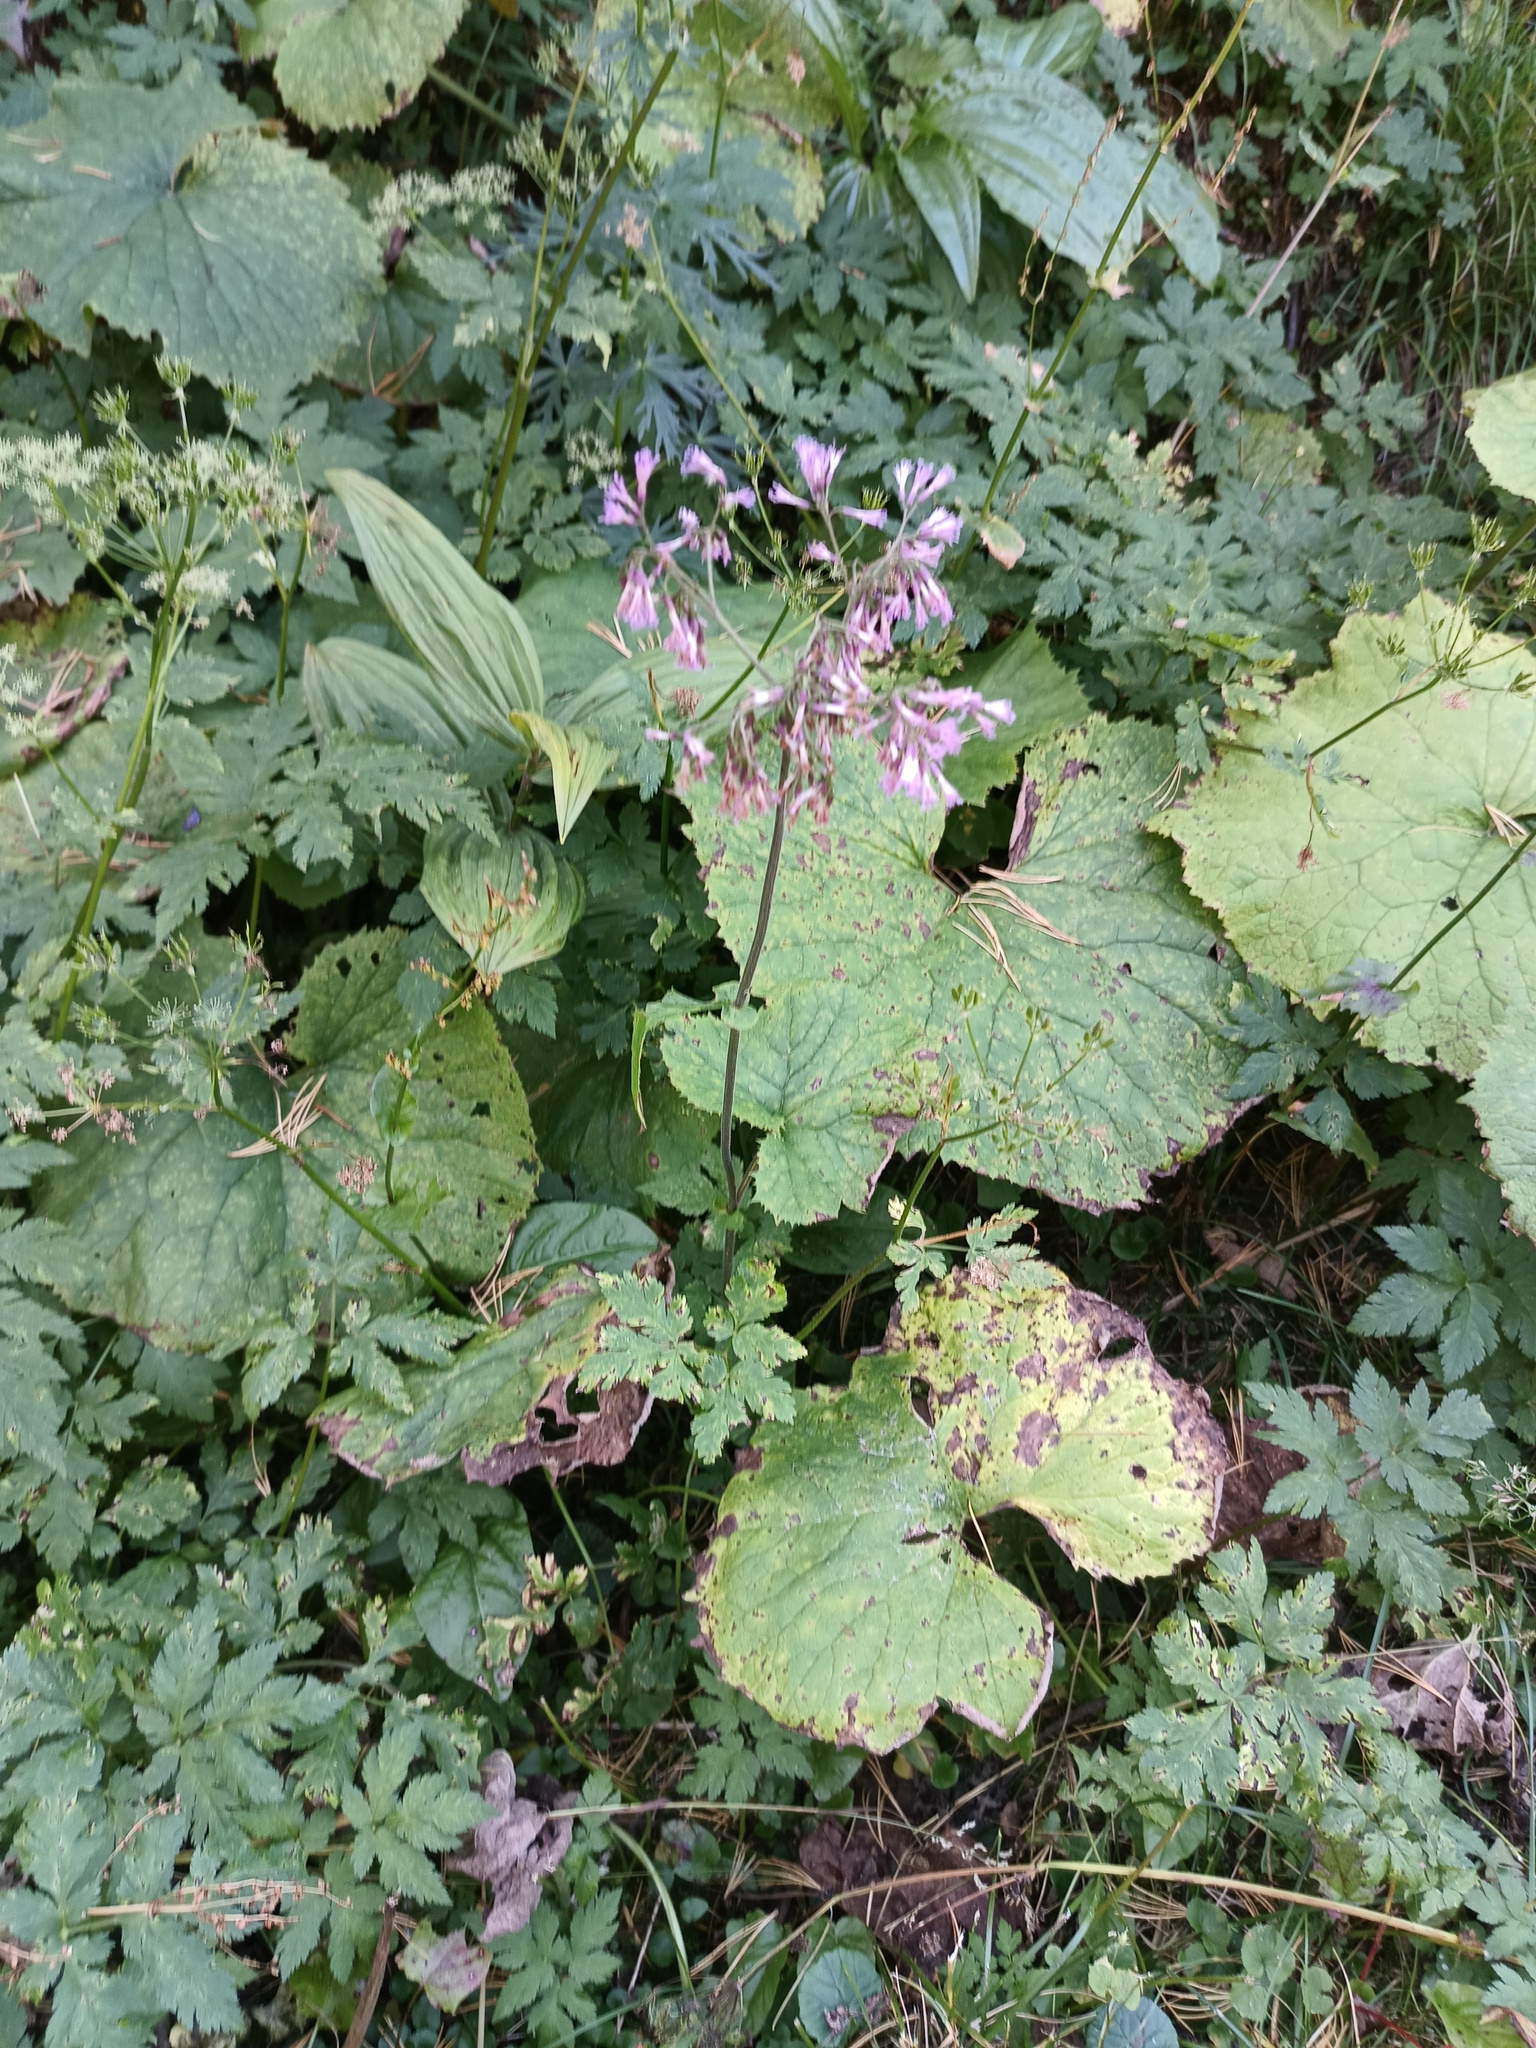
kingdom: Plantae
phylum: Tracheophyta
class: Magnoliopsida
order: Asterales
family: Asteraceae
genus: Adenostyles
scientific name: Adenostyles alliariae
